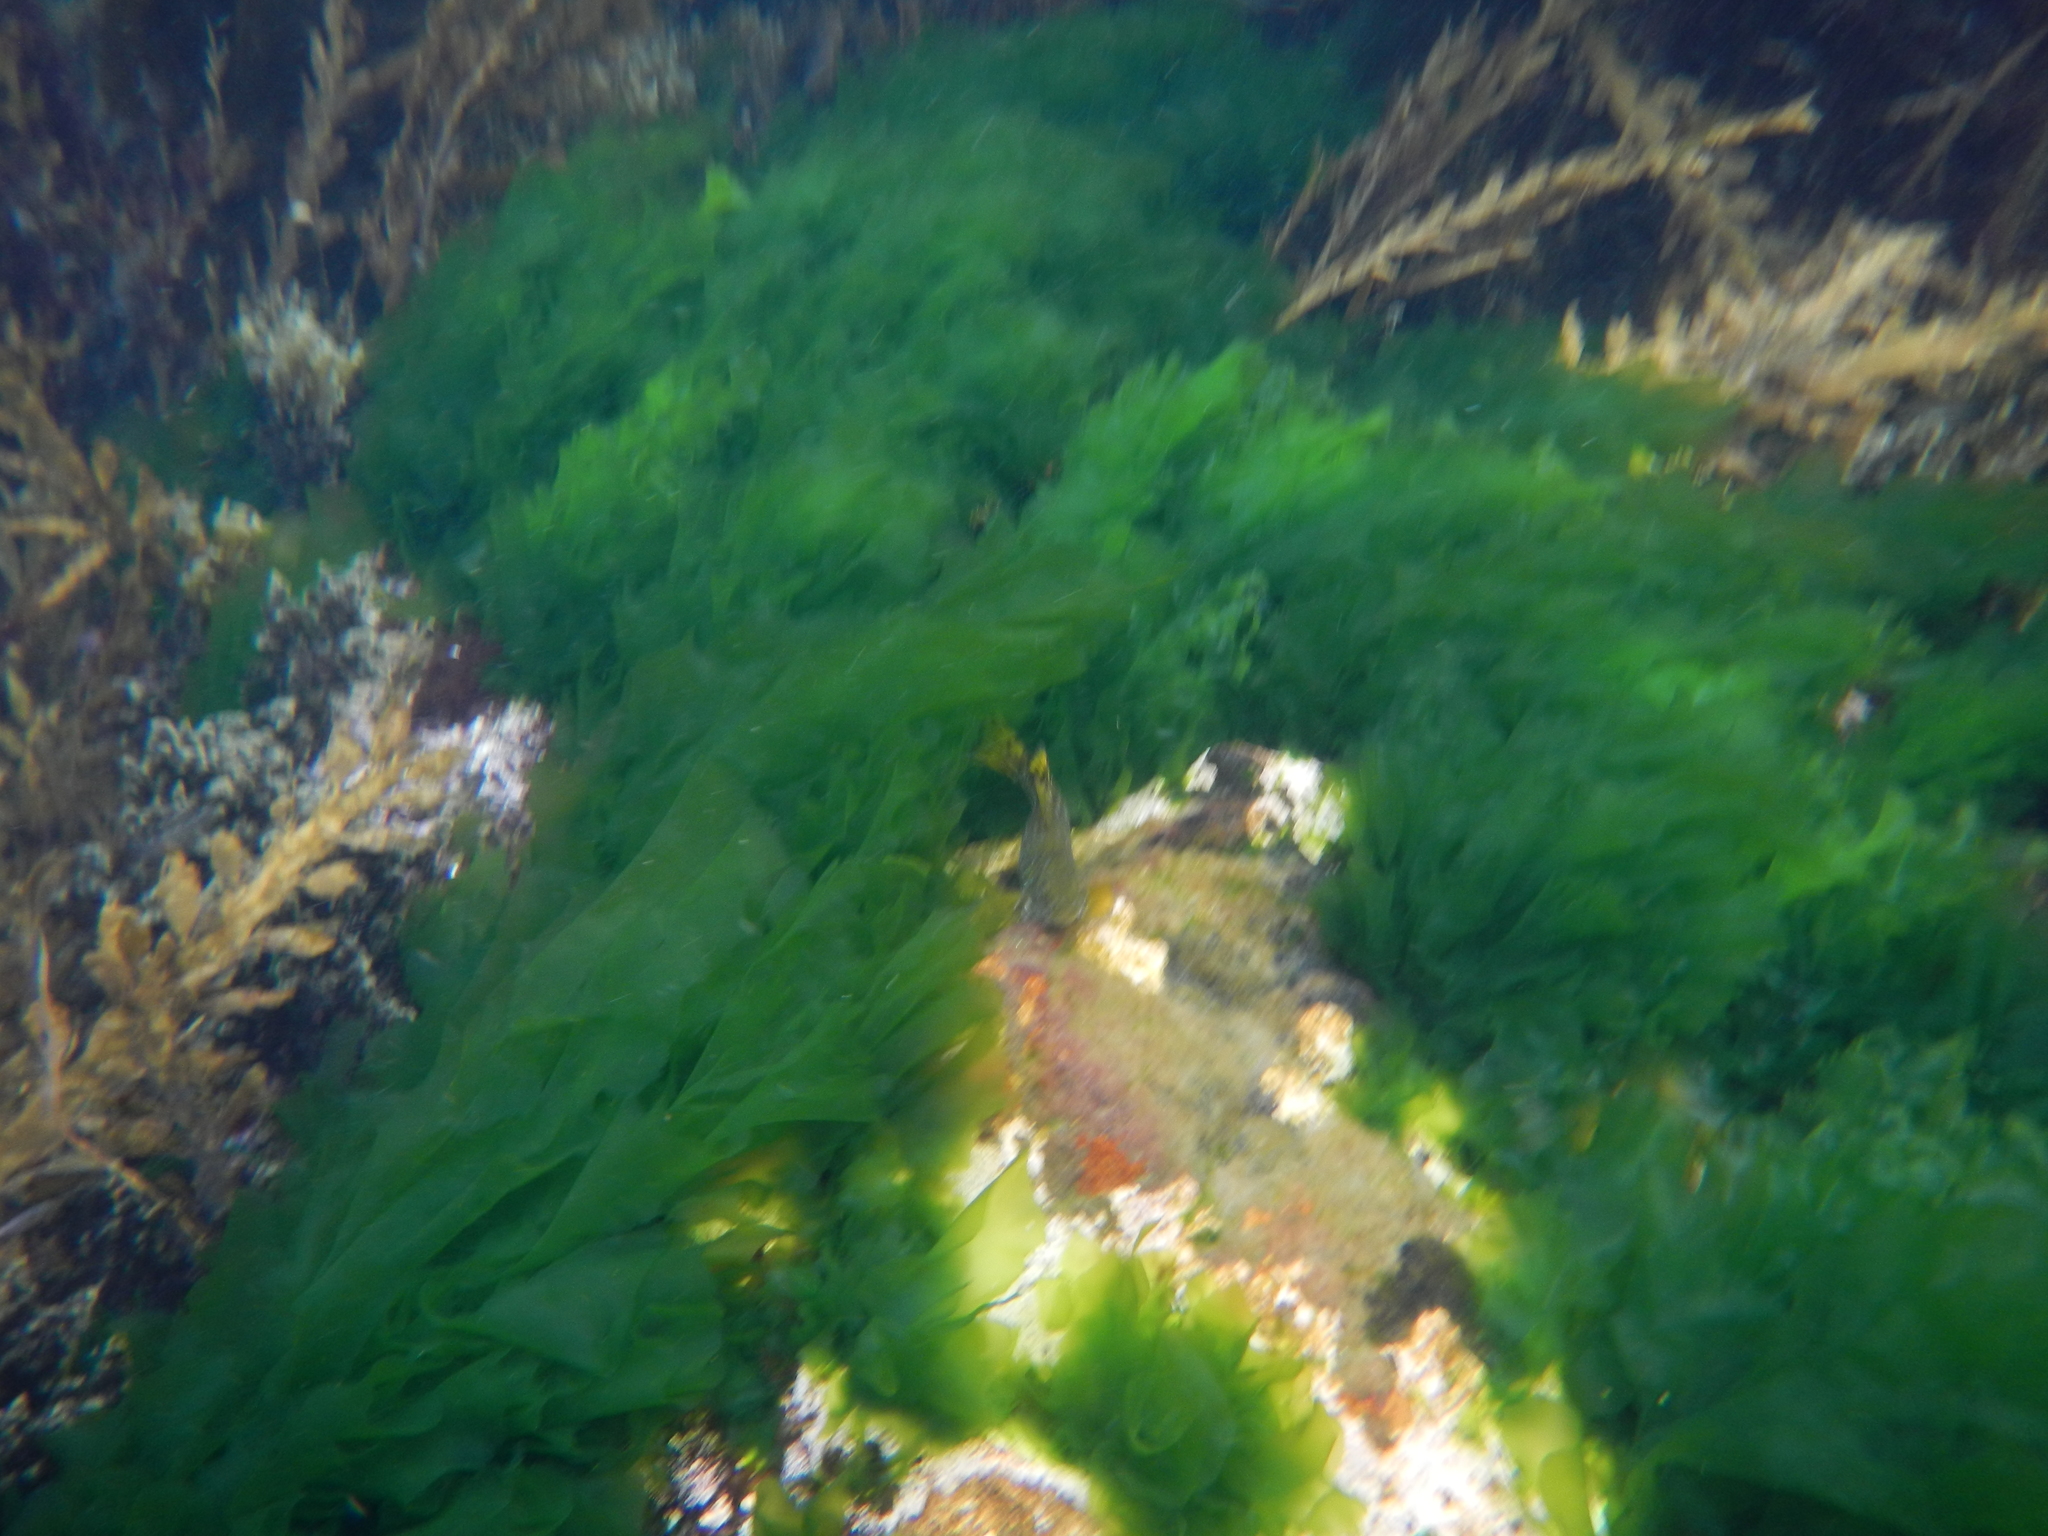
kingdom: Animalia
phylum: Chordata
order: Perciformes
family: Aplodactylidae
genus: Aplodactylus
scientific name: Aplodactylus arctidens
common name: Marblefish
